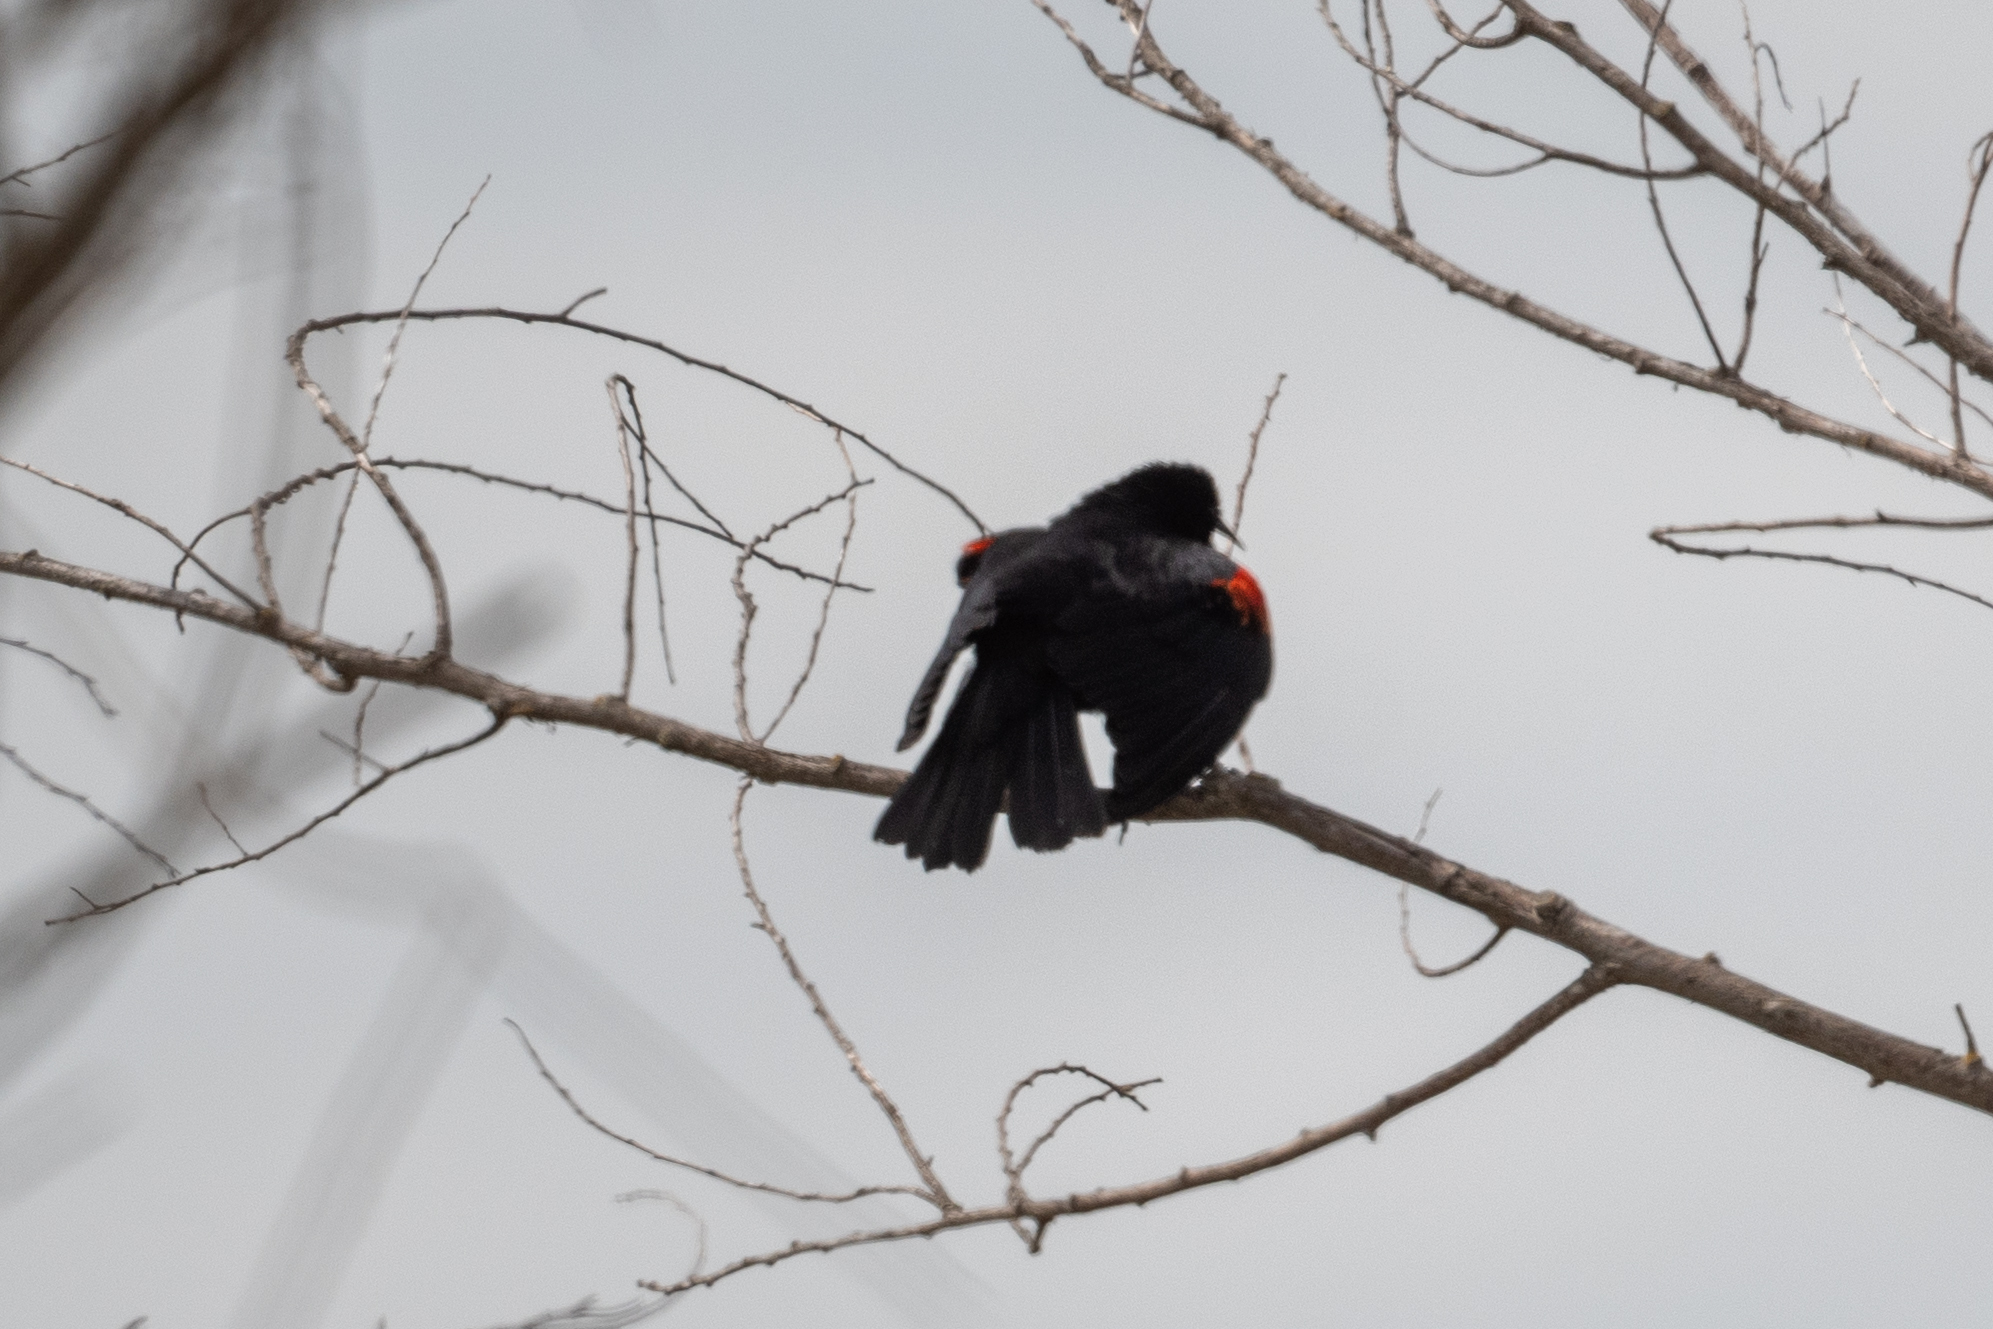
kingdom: Animalia
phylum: Chordata
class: Aves
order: Passeriformes
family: Icteridae
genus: Agelaius
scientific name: Agelaius phoeniceus
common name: Red-winged blackbird
